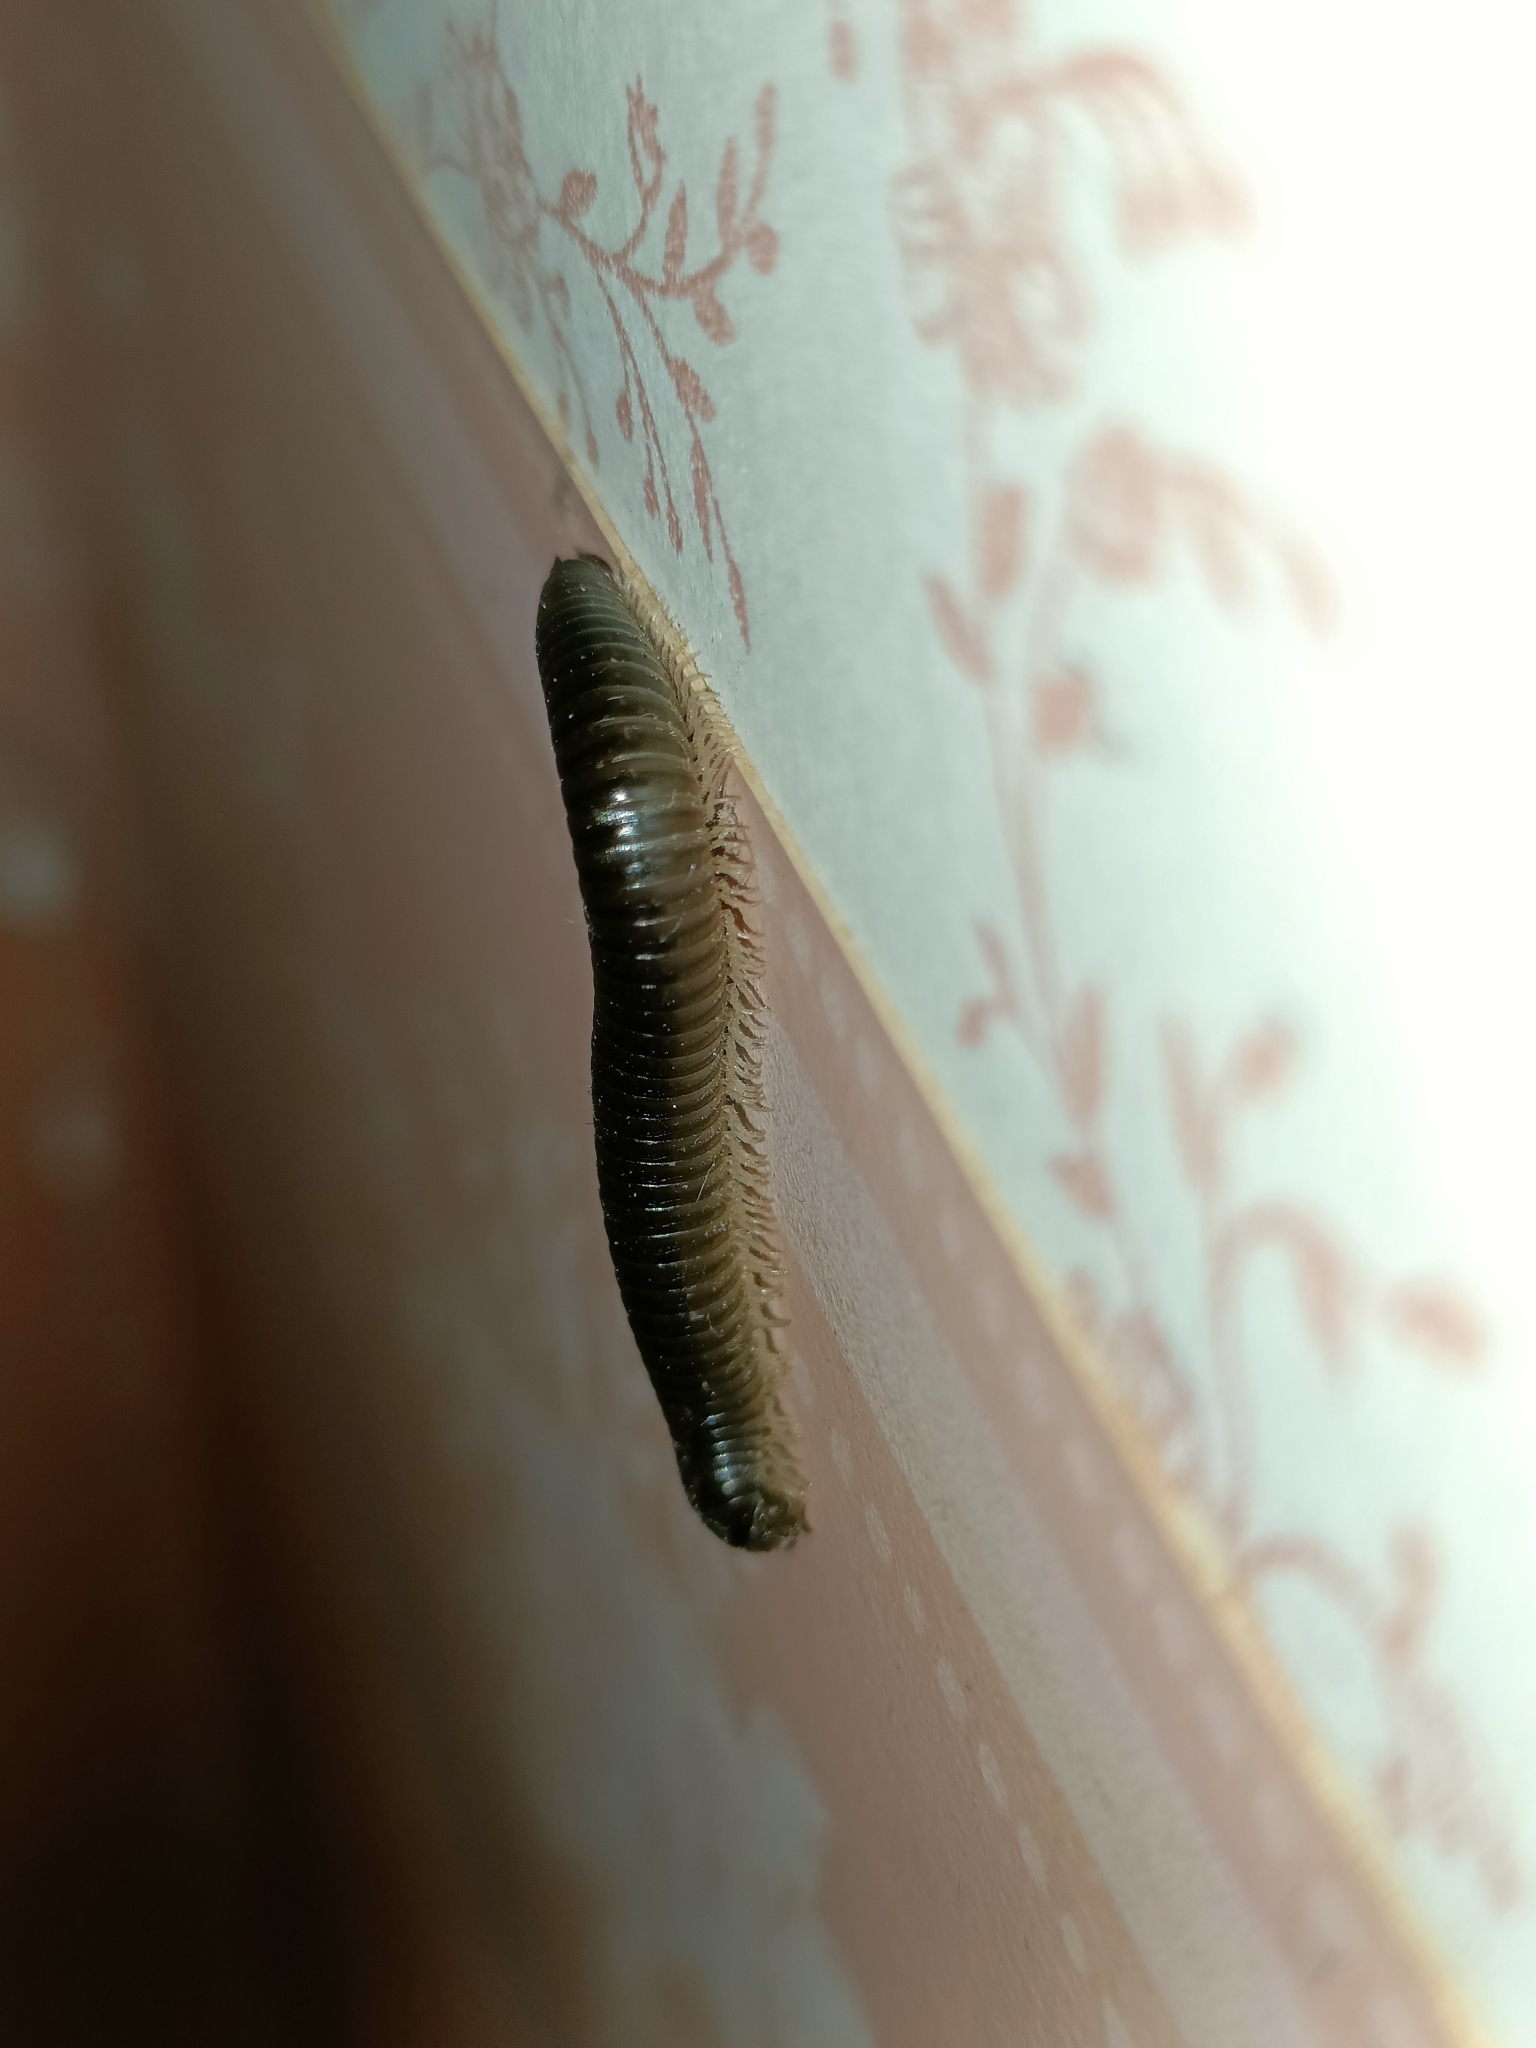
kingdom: Animalia
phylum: Arthropoda
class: Diplopoda
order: Julida
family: Julidae
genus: Ommatoiulus
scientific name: Ommatoiulus moreleti
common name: Portuguese millipede
